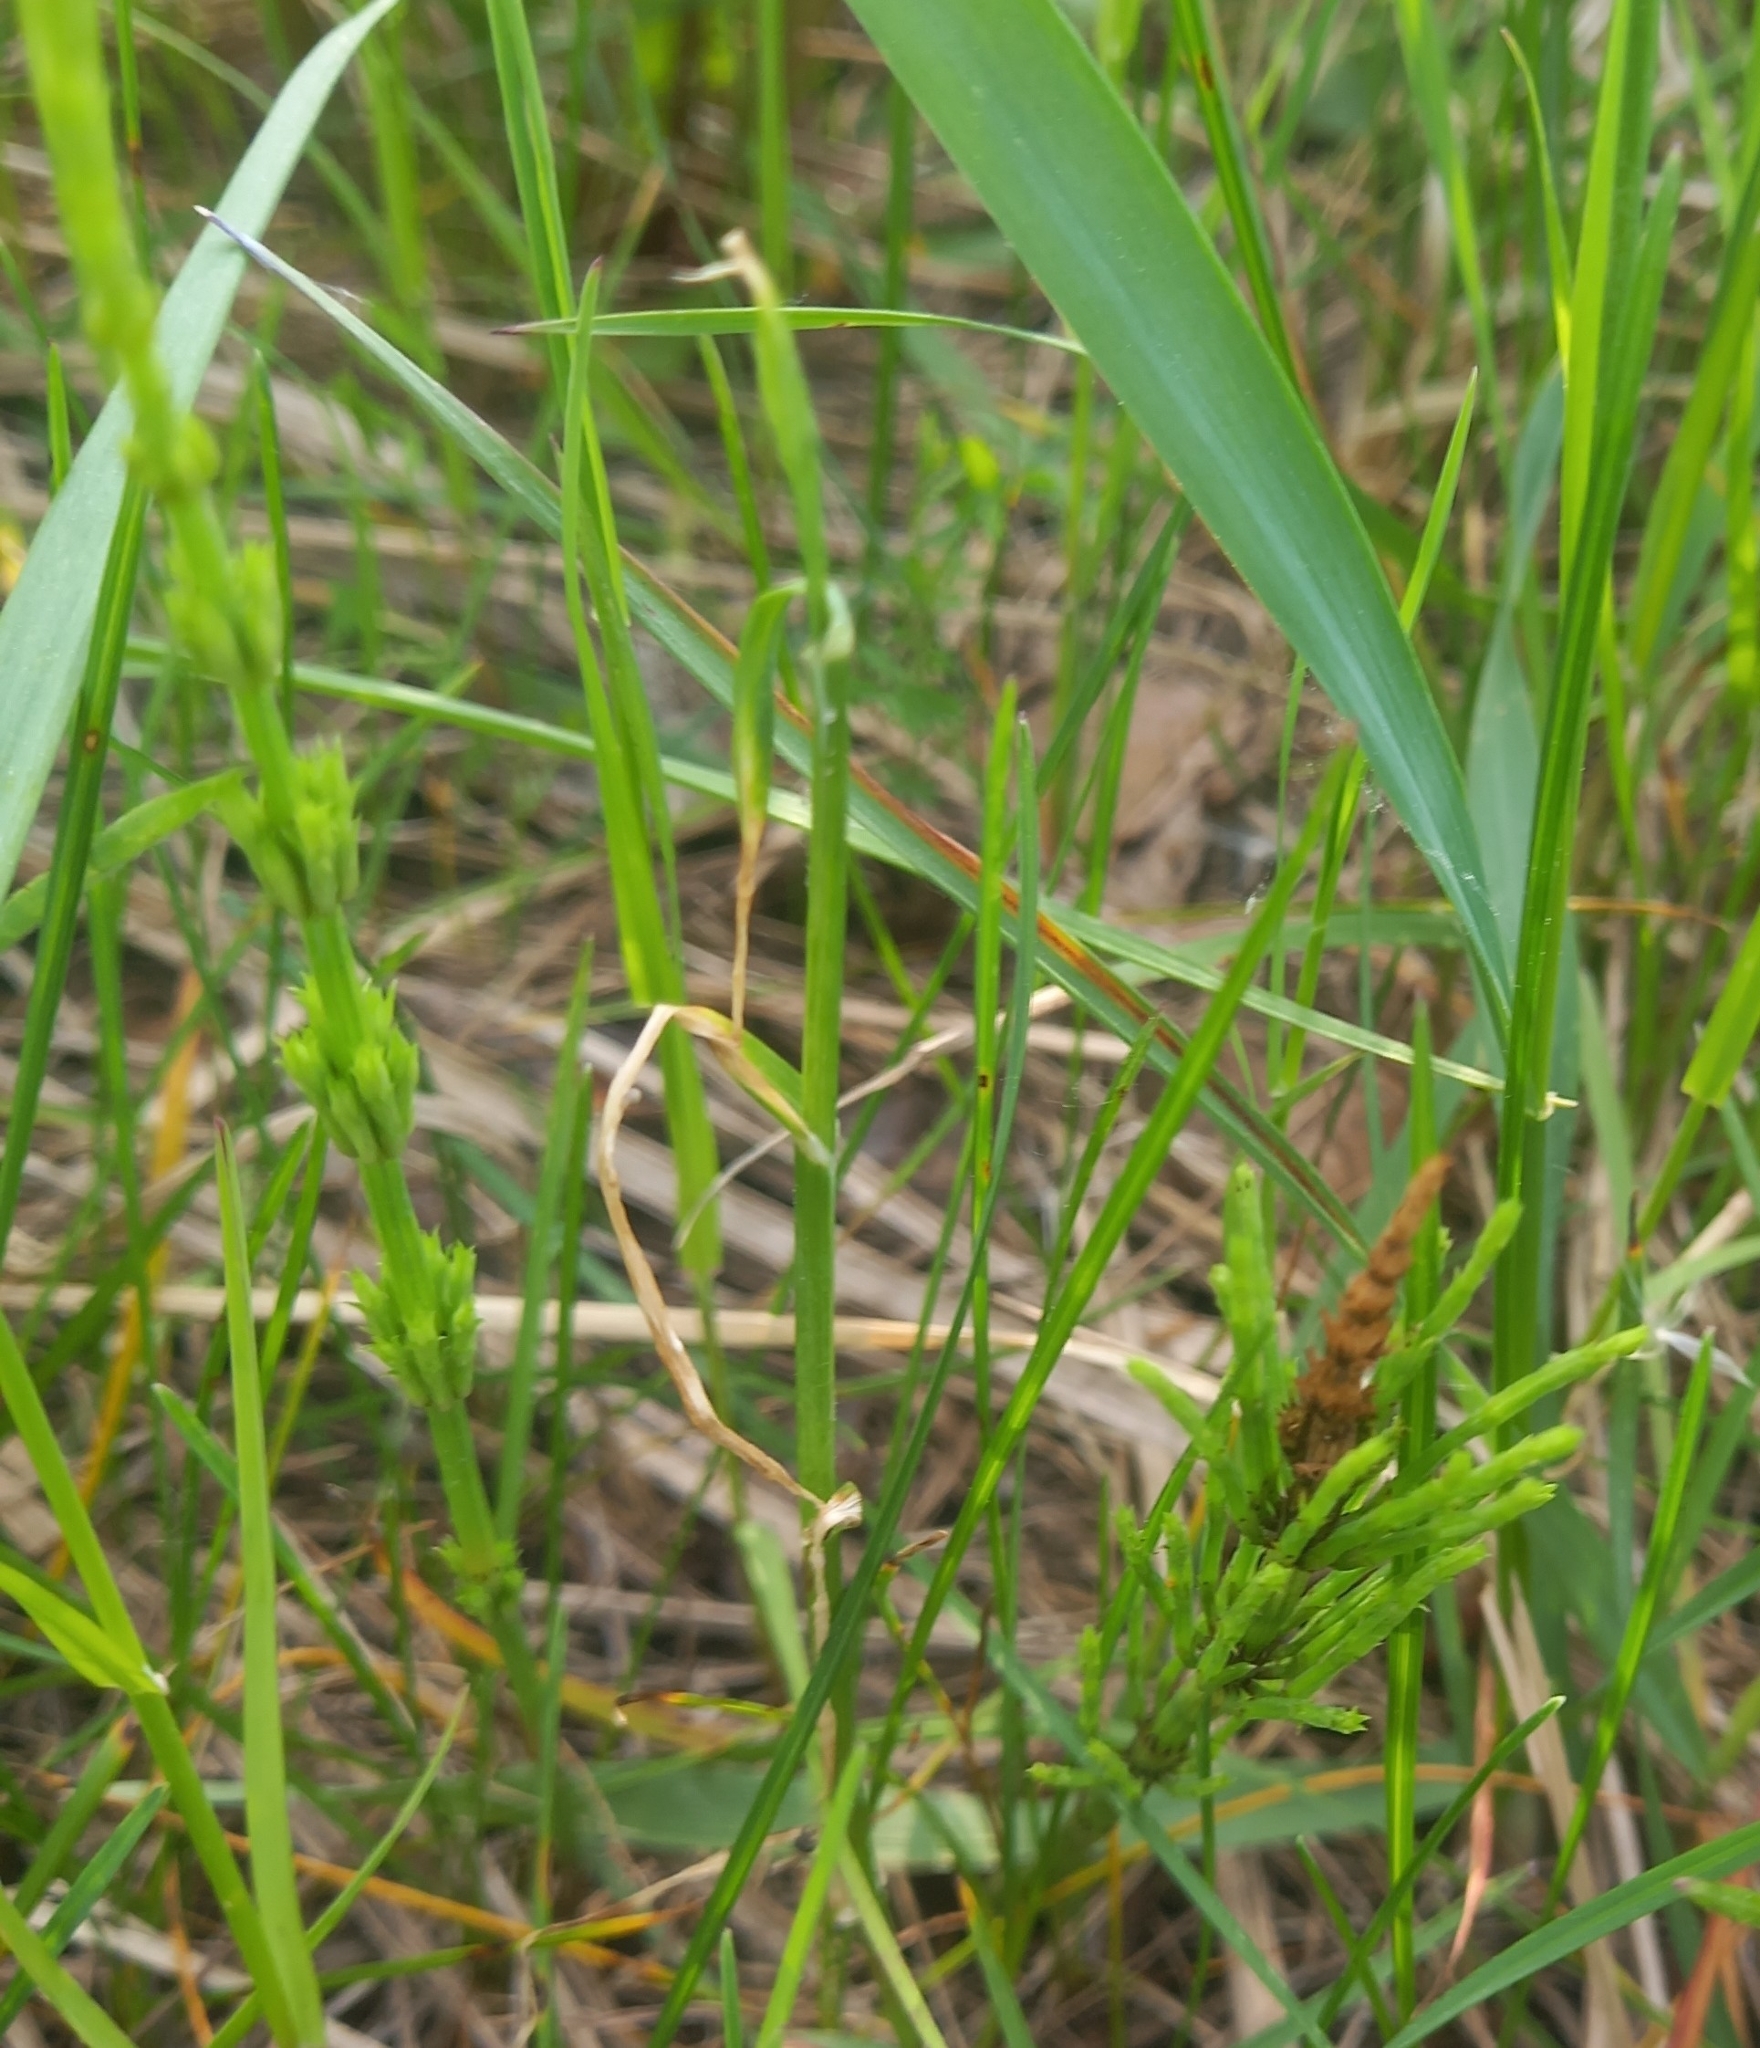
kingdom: Plantae
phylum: Tracheophyta
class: Polypodiopsida
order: Equisetales
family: Equisetaceae
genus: Equisetum
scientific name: Equisetum arvense
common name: Field horsetail
